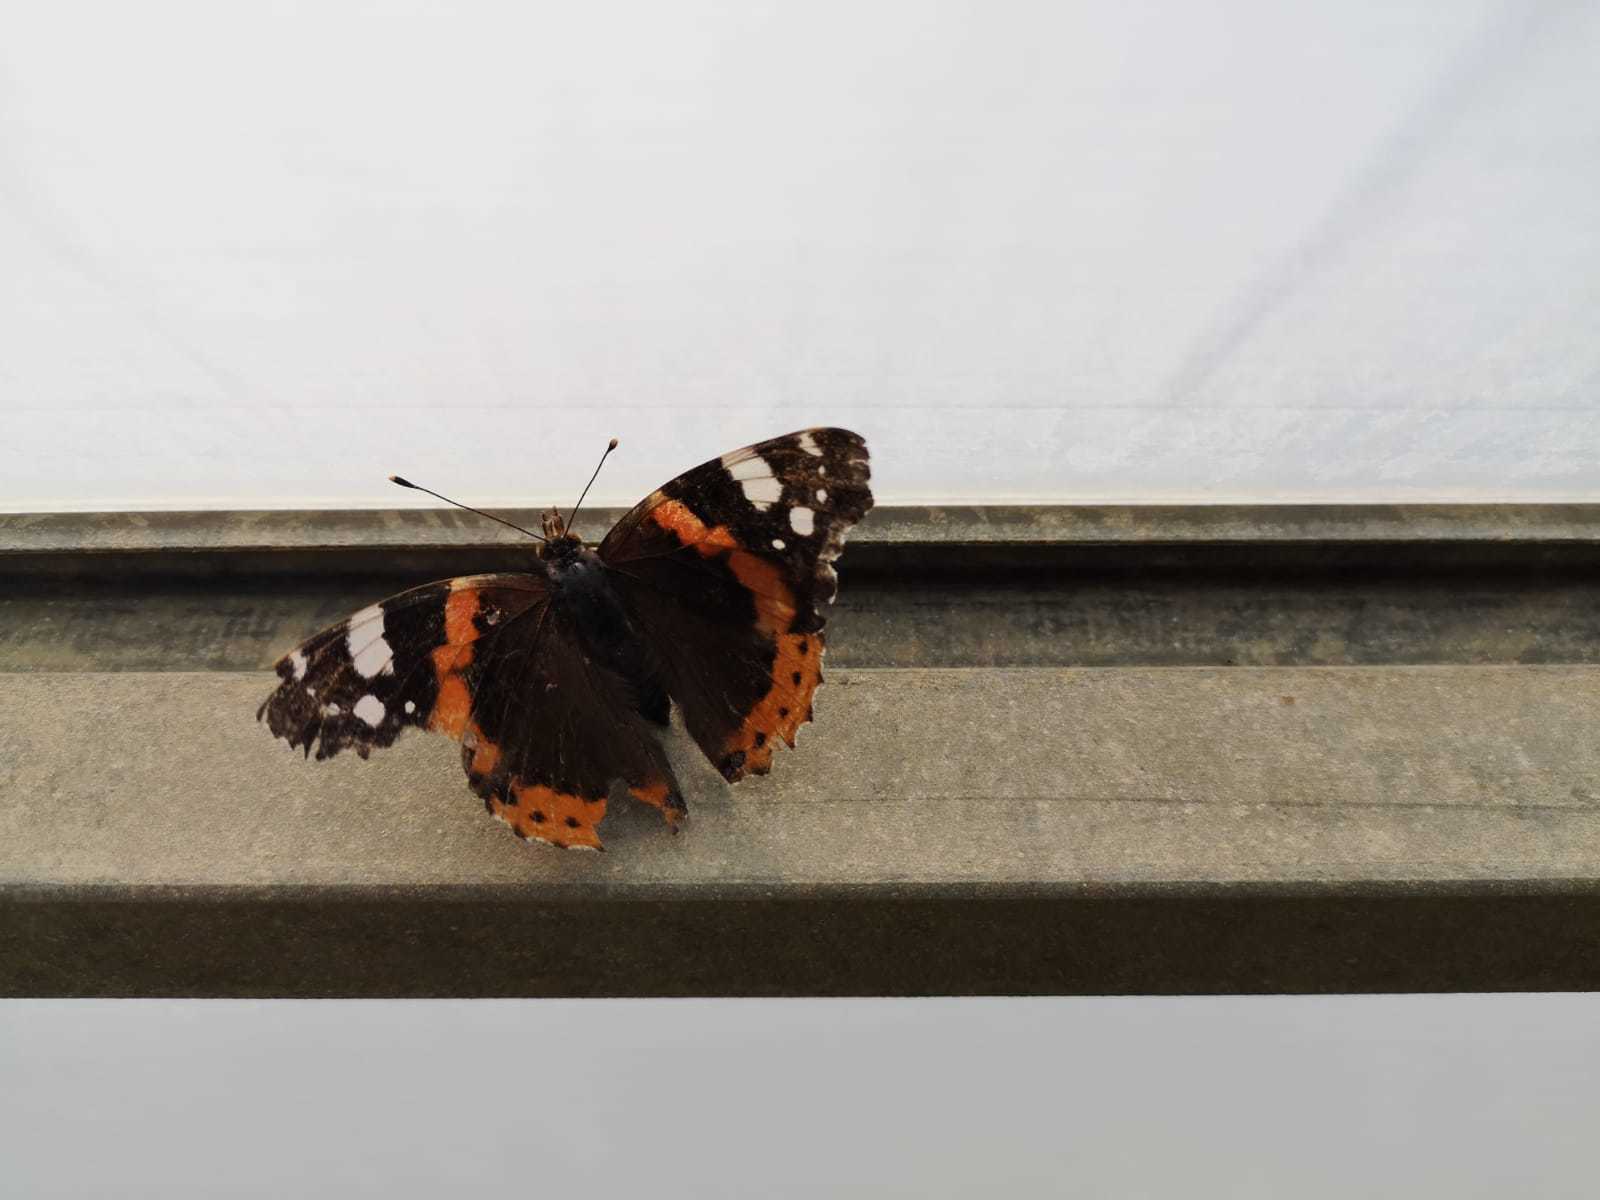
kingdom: Animalia
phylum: Arthropoda
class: Insecta
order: Lepidoptera
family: Nymphalidae
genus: Vanessa
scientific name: Vanessa atalanta
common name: Red admiral
